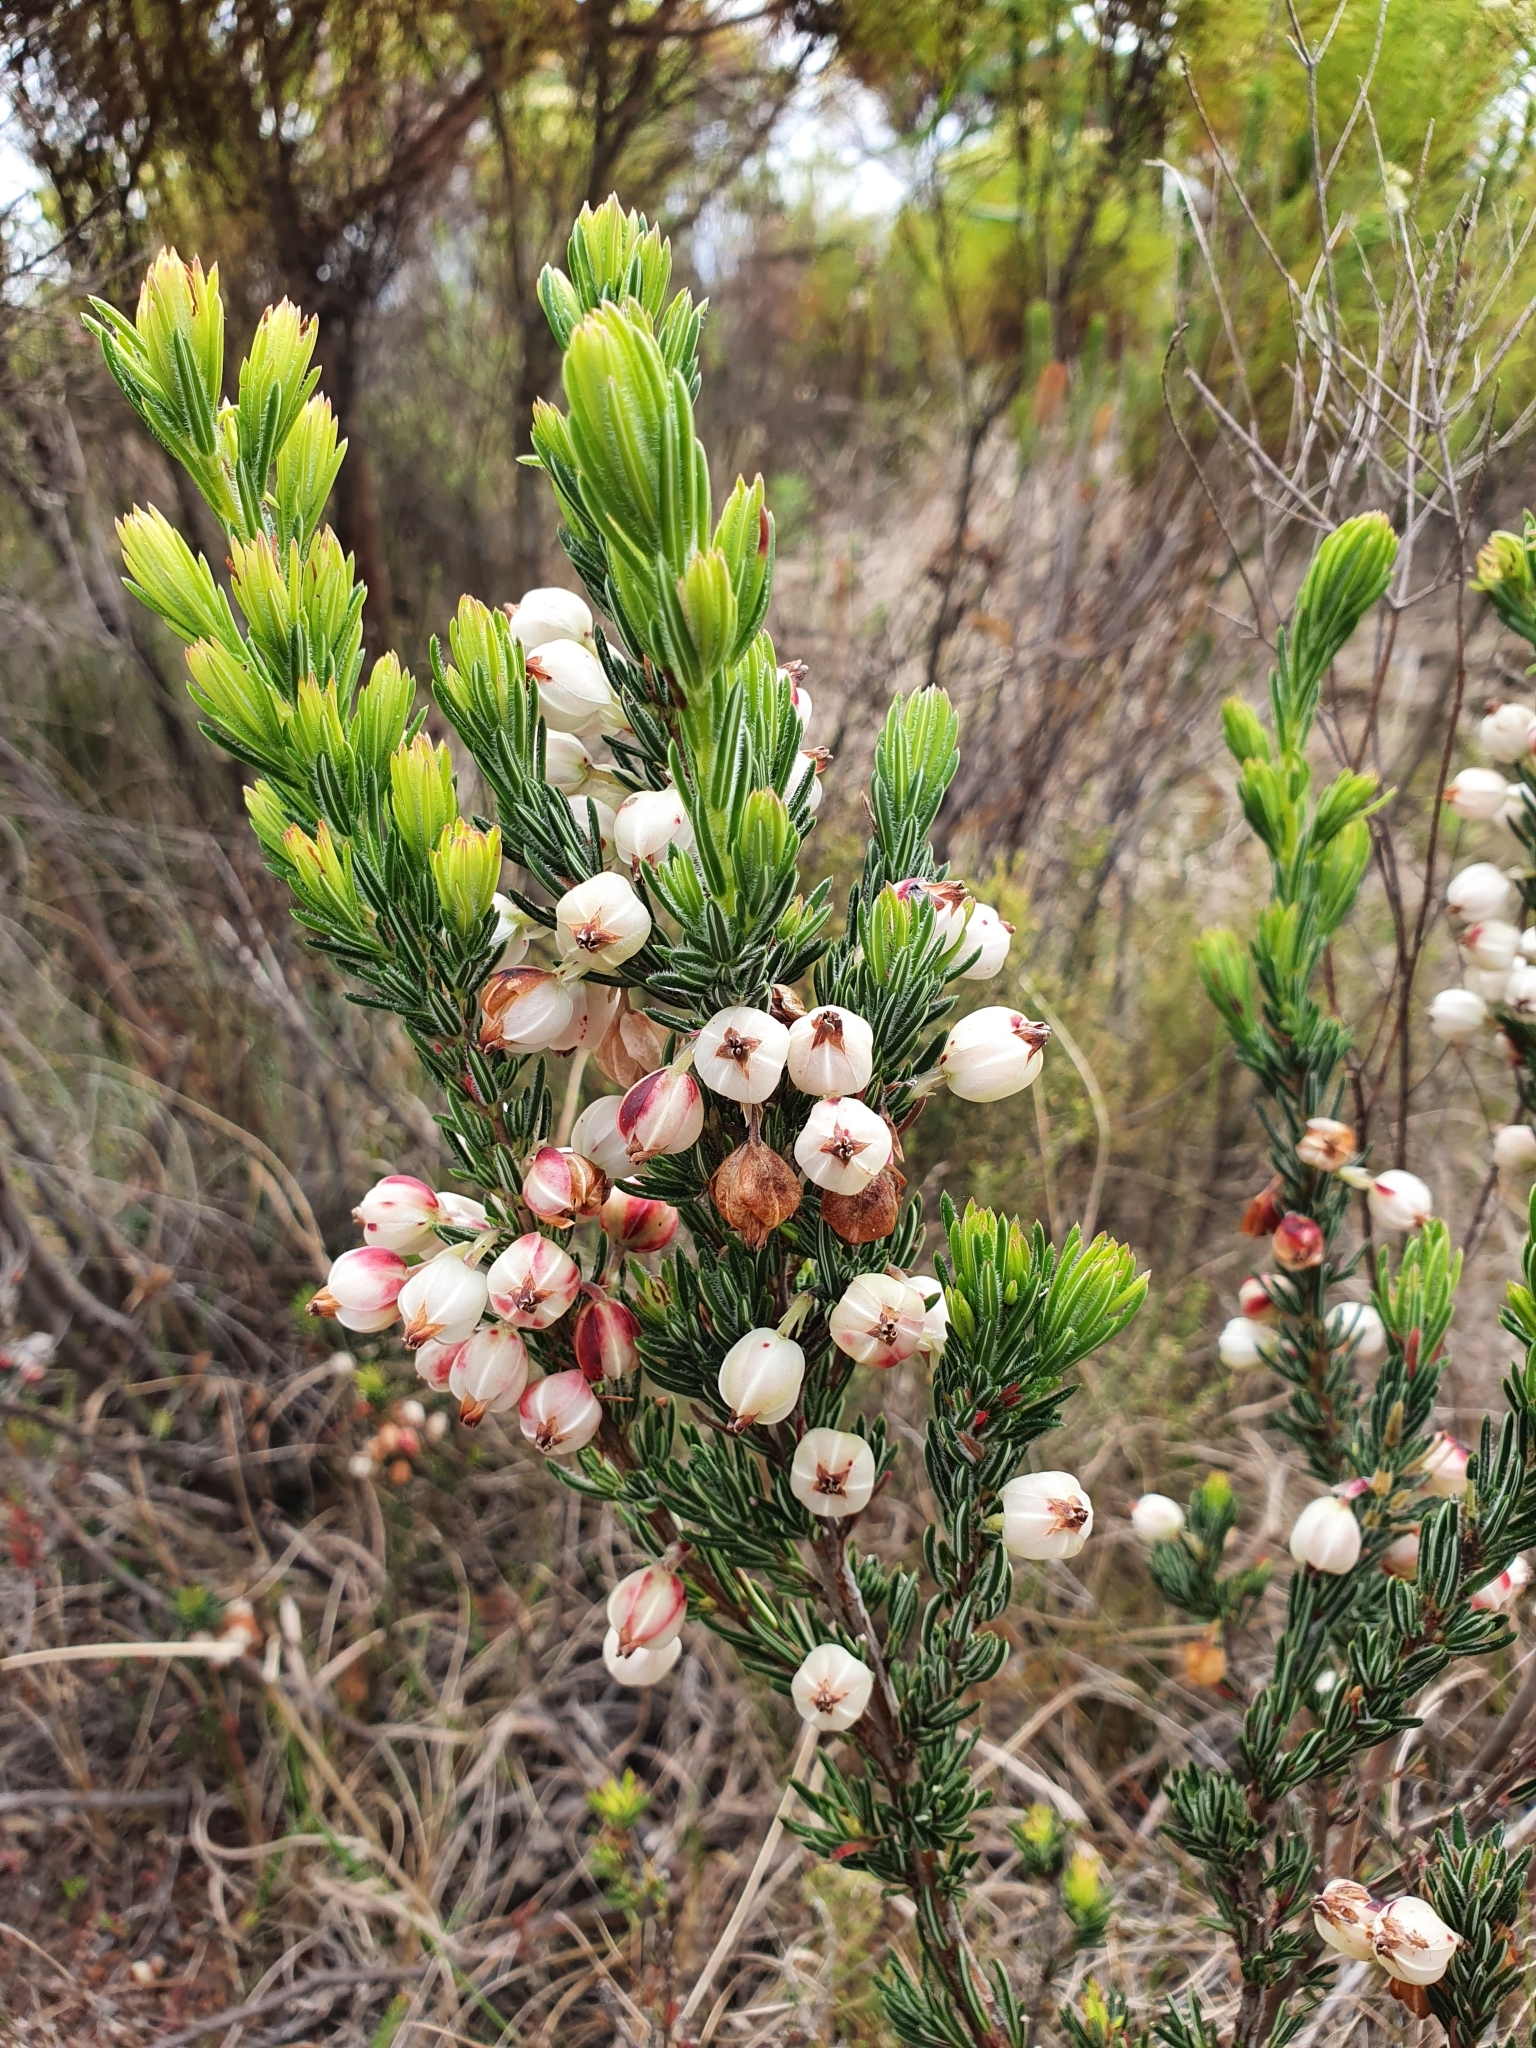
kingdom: Plantae
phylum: Tracheophyta
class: Magnoliopsida
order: Ericales
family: Ericaceae
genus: Erica
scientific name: Erica grisbrookii
